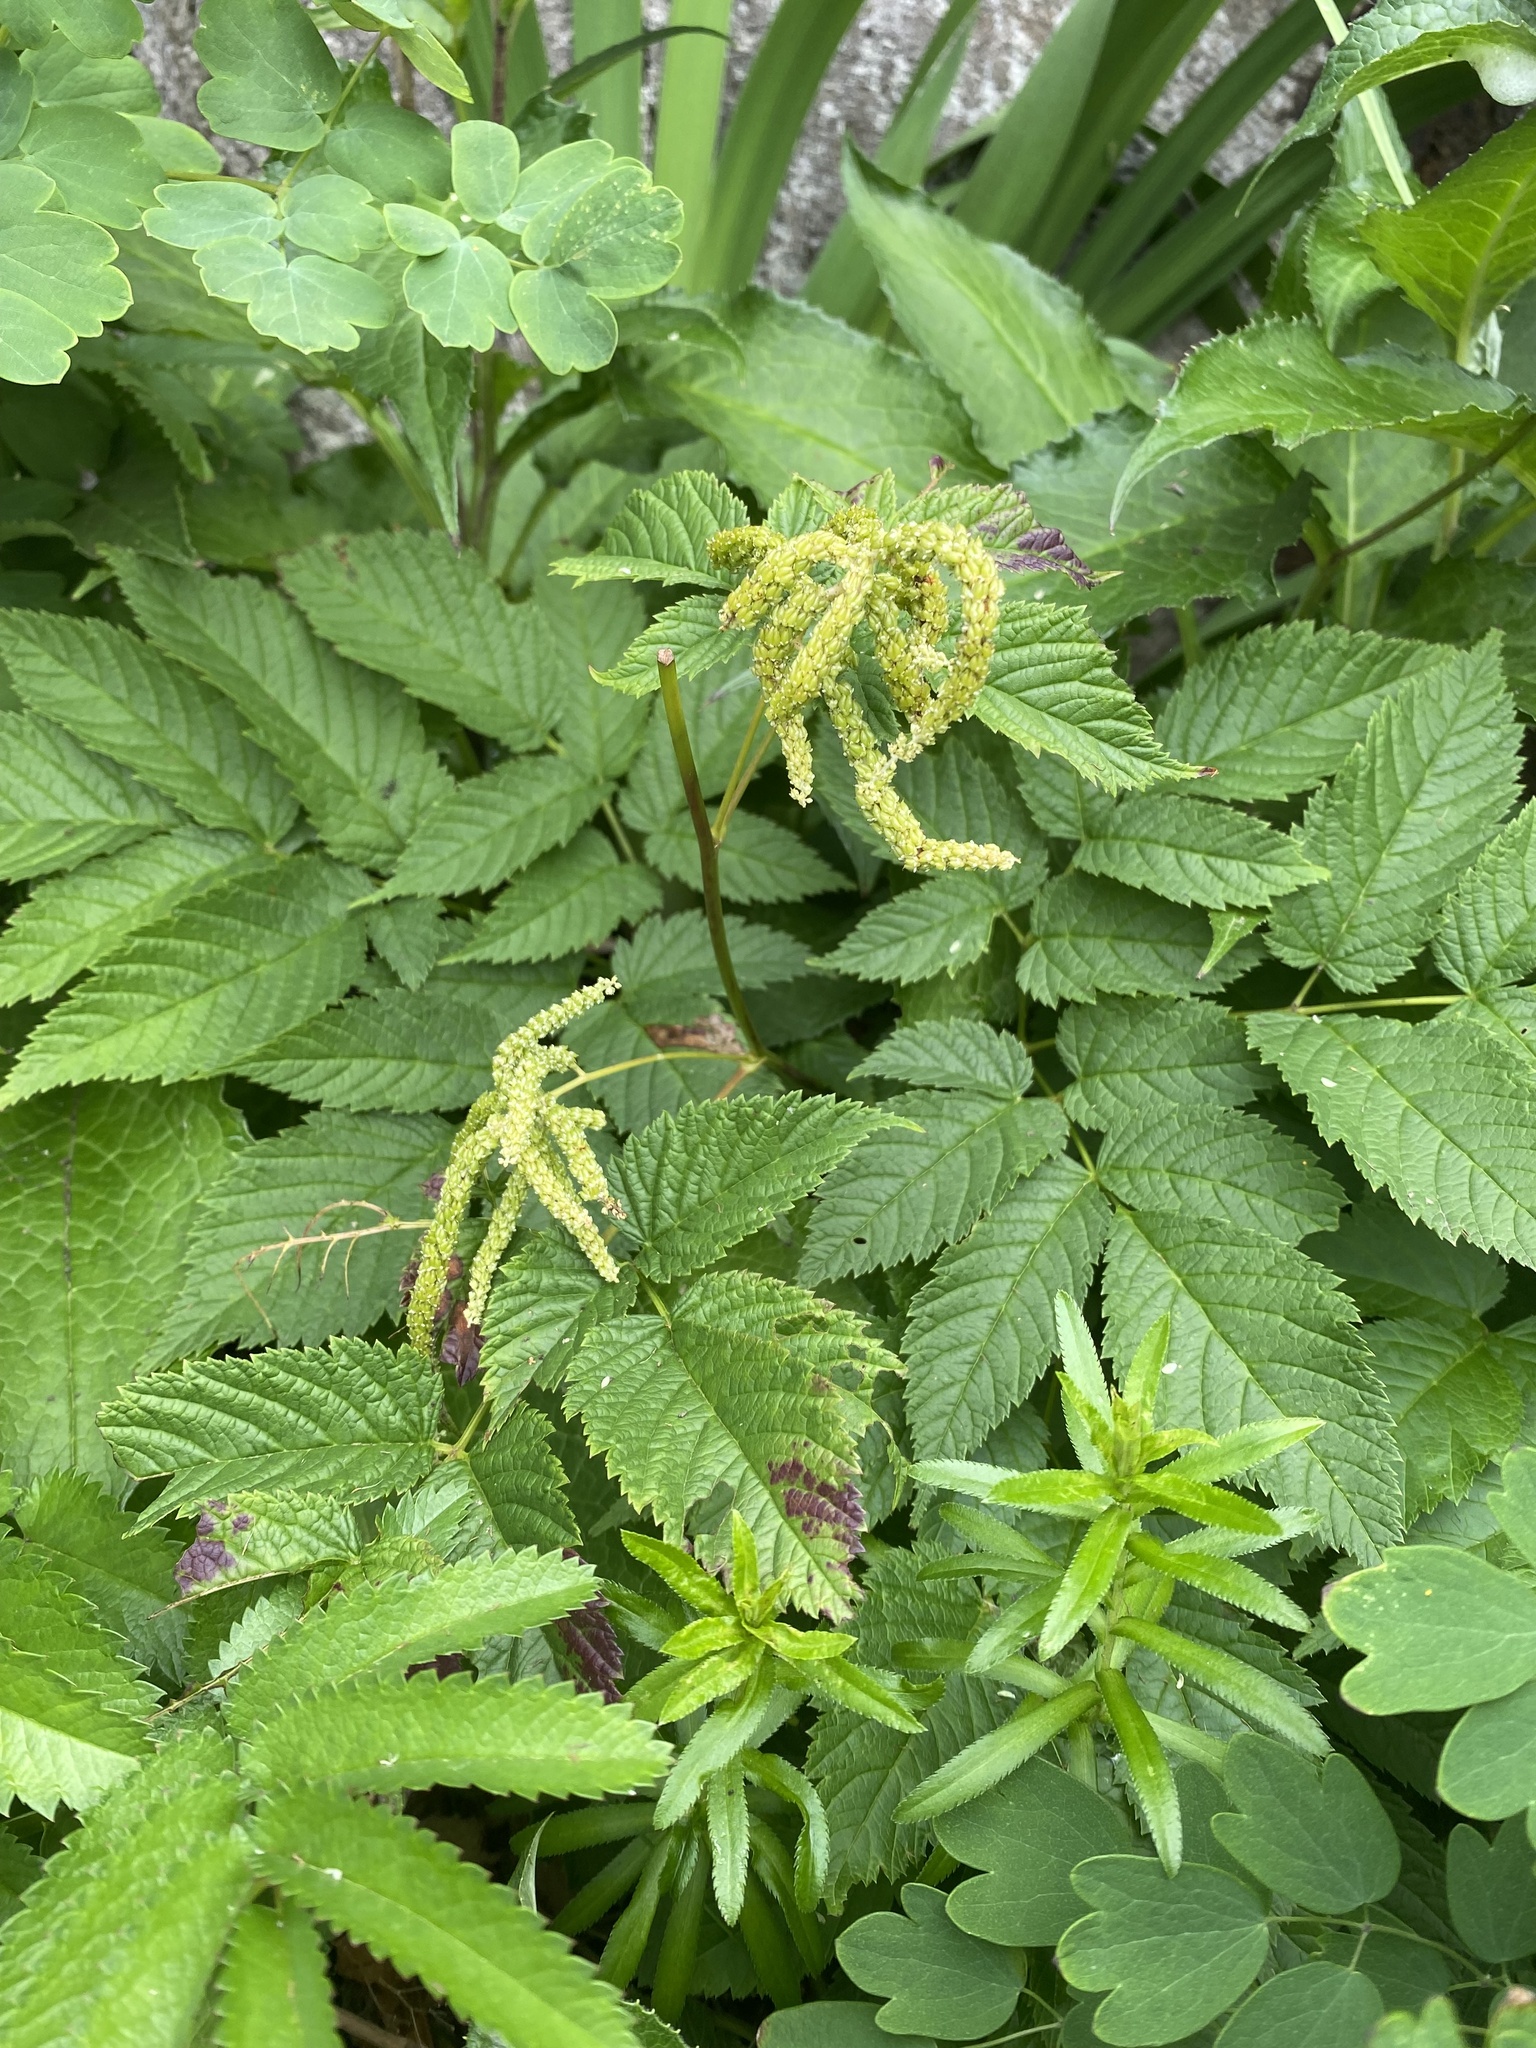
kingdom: Plantae
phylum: Tracheophyta
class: Magnoliopsida
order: Rosales
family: Rosaceae
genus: Aruncus
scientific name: Aruncus dioicus
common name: Buck's-beard
